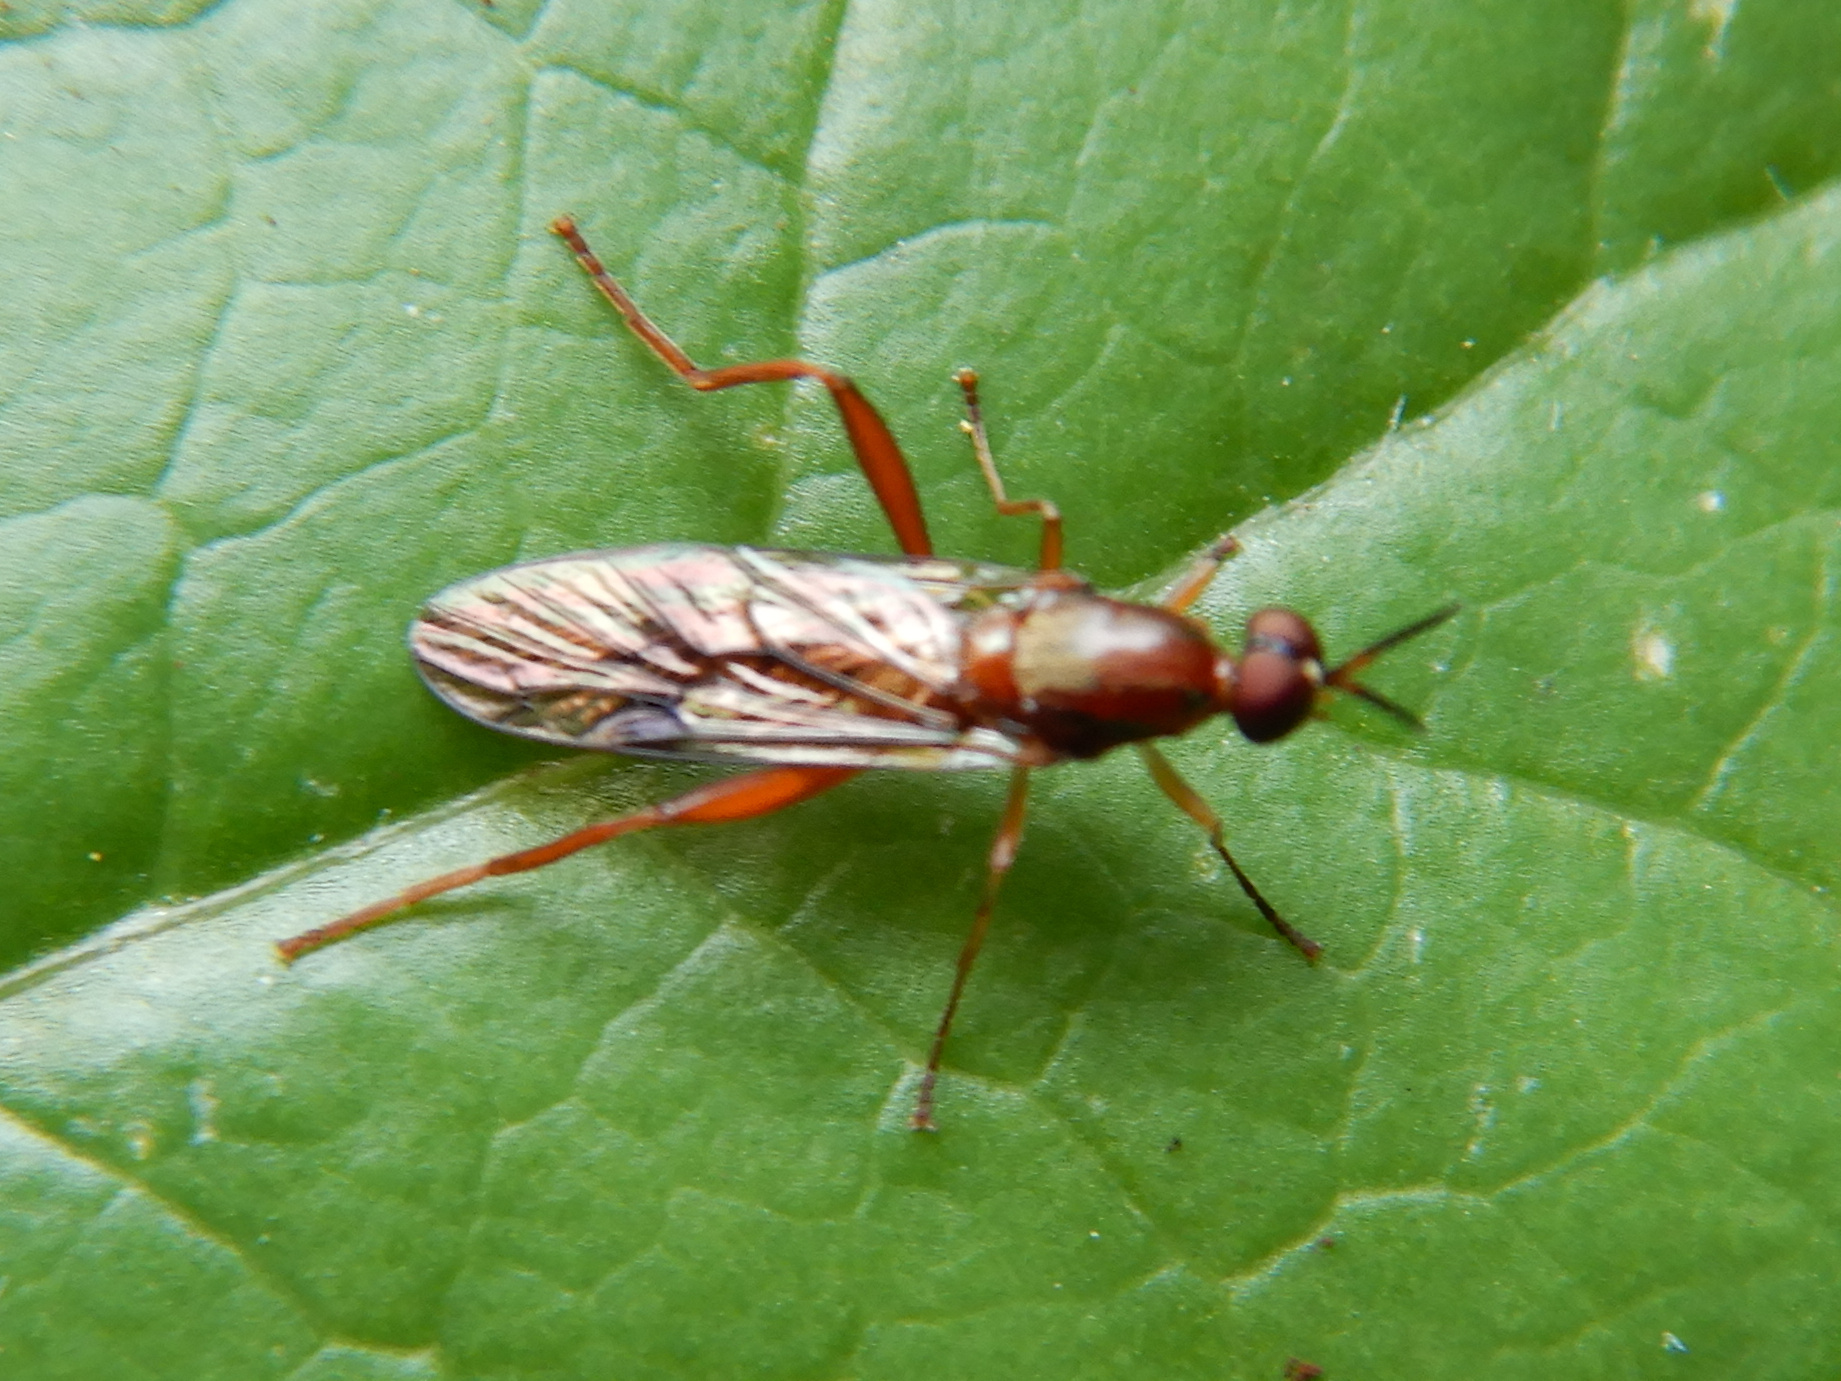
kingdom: Animalia
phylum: Arthropoda
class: Insecta
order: Diptera
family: Stratiomyidae
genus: Benhamyia
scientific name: Benhamyia straznitzkii
